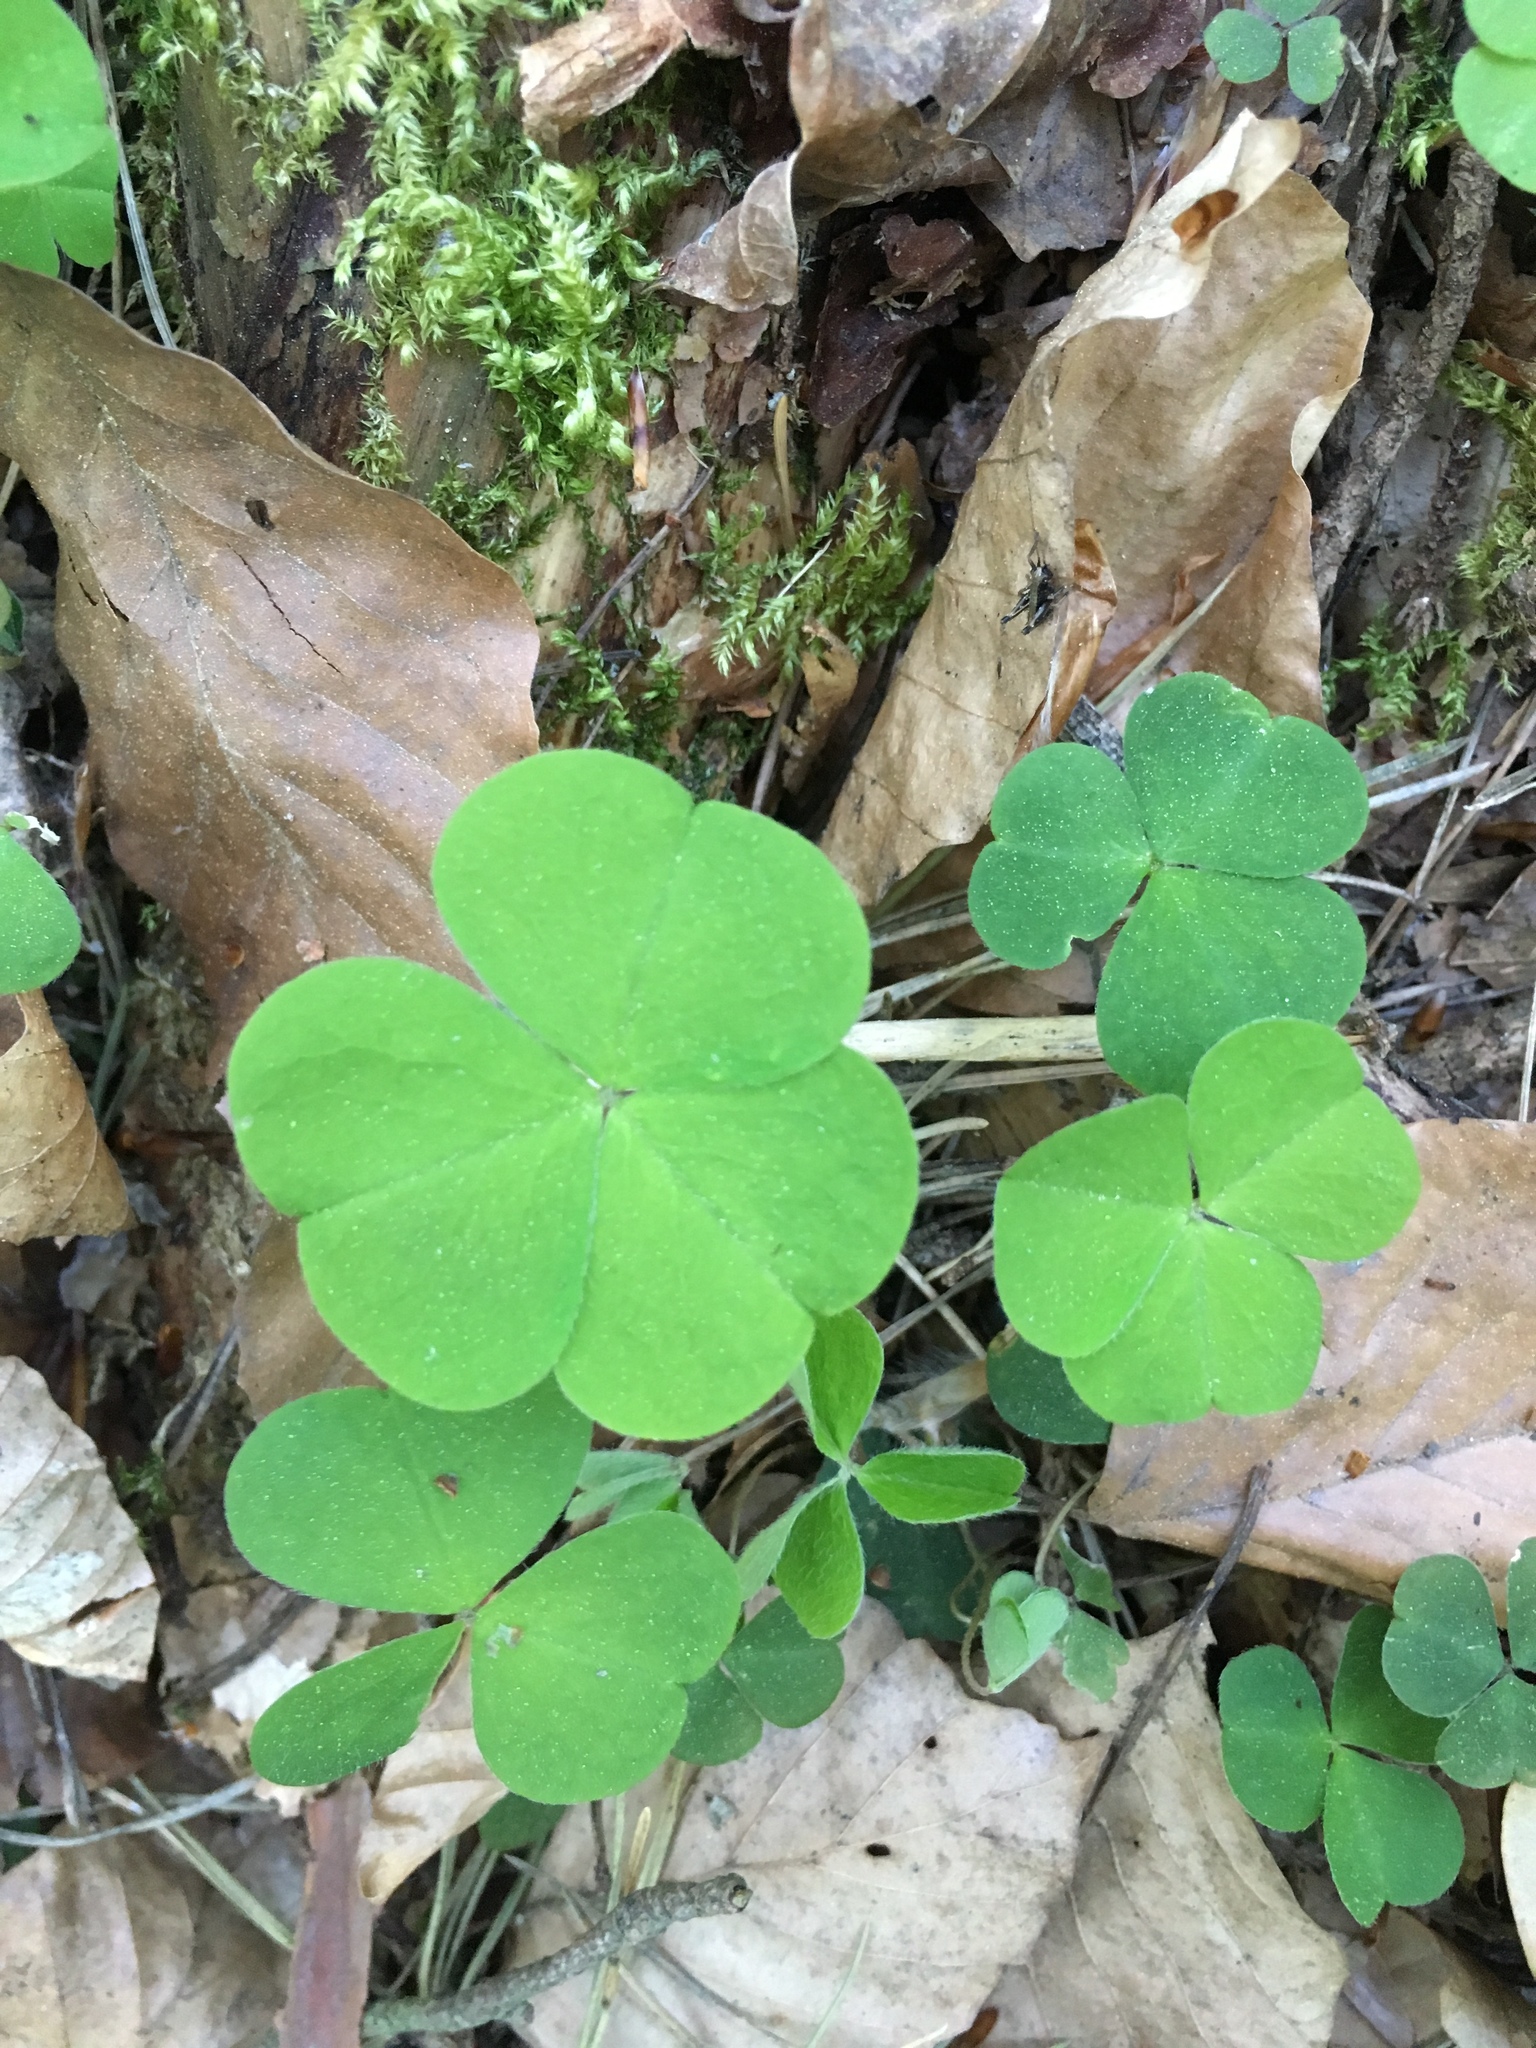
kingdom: Plantae
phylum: Tracheophyta
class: Magnoliopsida
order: Oxalidales
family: Oxalidaceae
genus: Oxalis
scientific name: Oxalis acetosella
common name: Wood-sorrel
